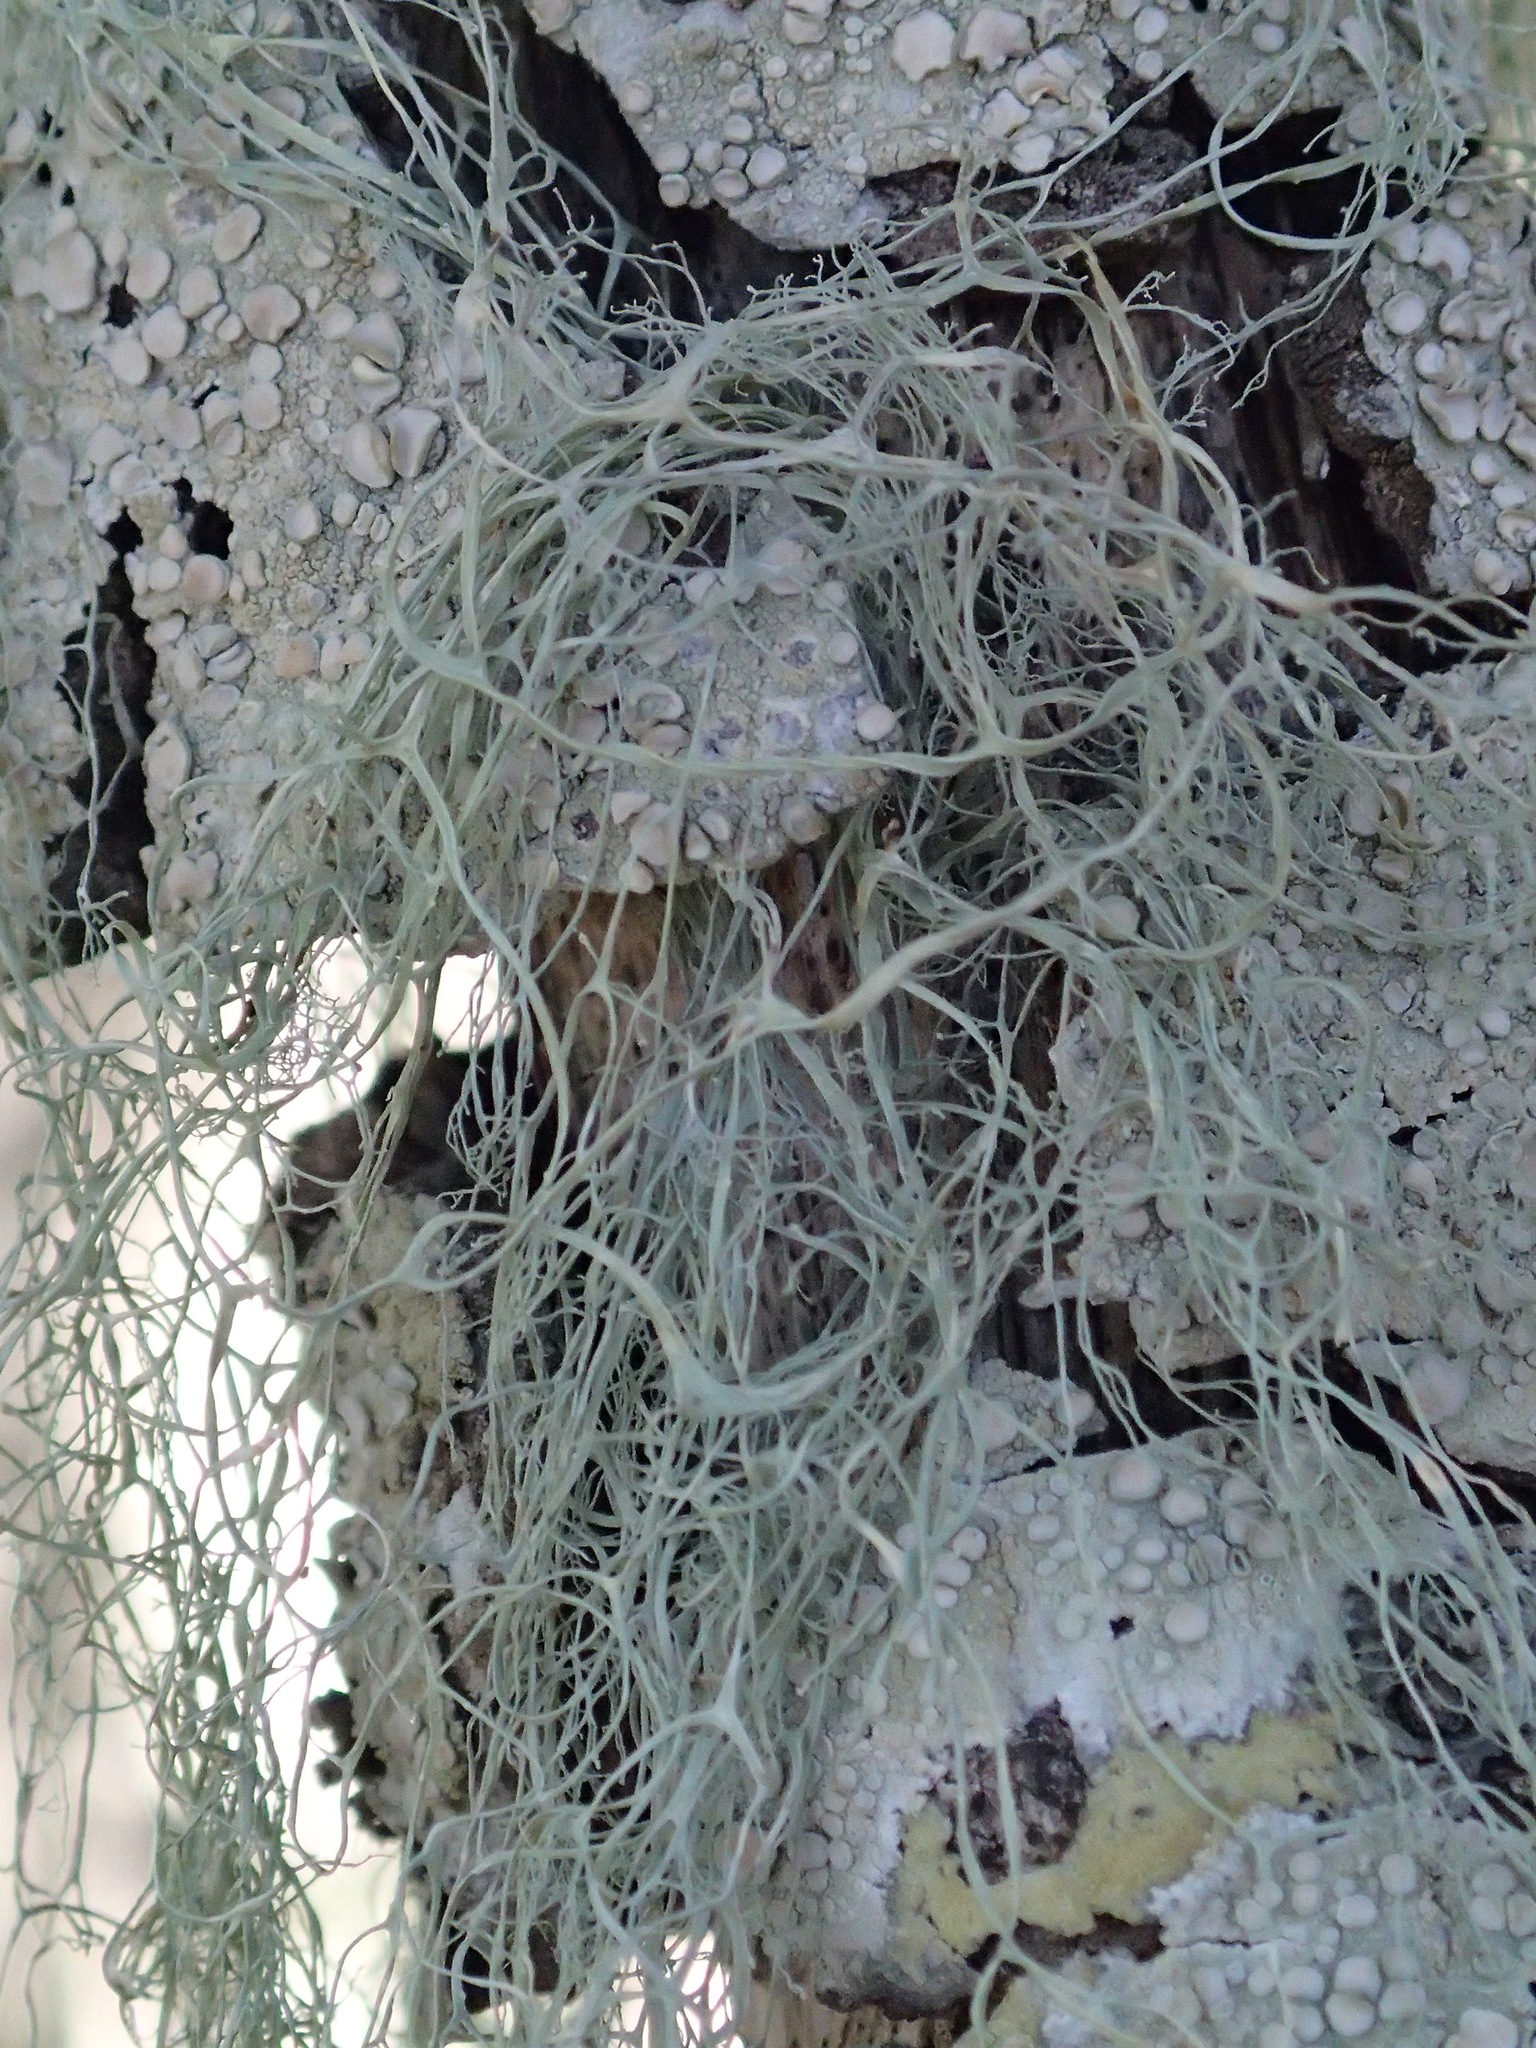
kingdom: Fungi
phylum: Ascomycota
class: Lecanoromycetes
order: Lecanorales
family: Ramalinaceae
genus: Ramalina
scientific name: Ramalina menziesii
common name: Lace lichen
